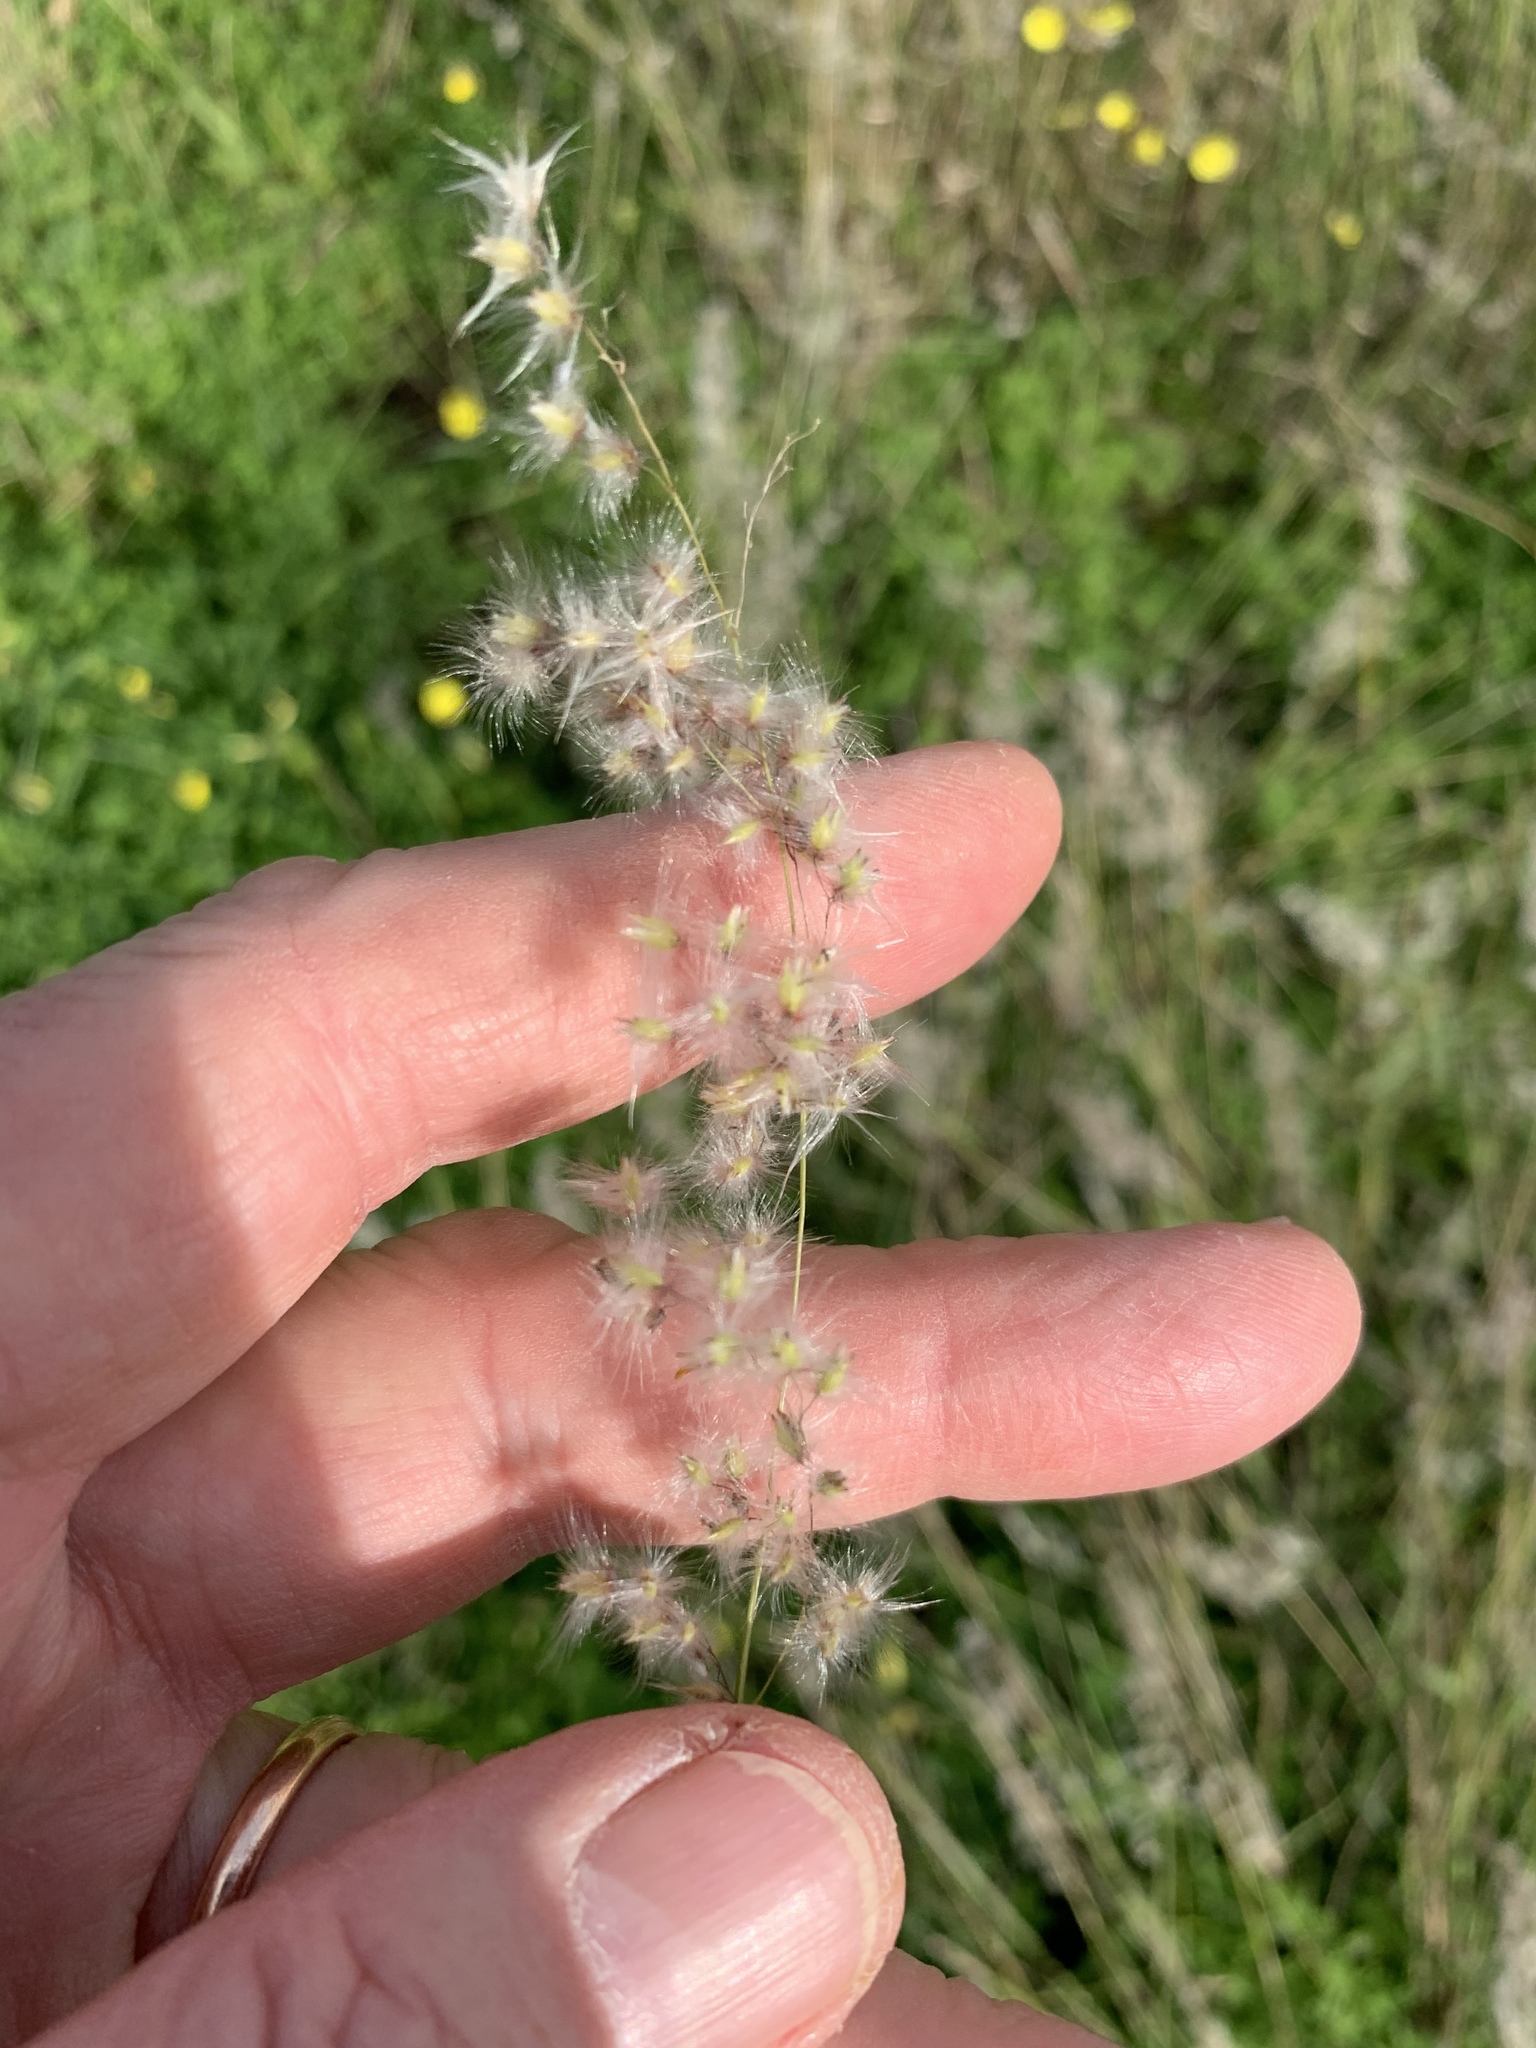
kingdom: Plantae
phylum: Tracheophyta
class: Liliopsida
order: Poales
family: Poaceae
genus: Melinis
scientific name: Melinis repens
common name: Rose natal grass
